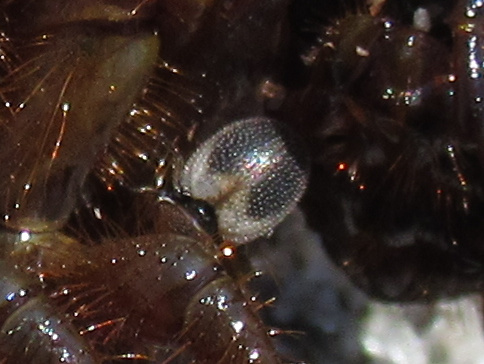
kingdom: Animalia
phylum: Arthropoda
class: Insecta
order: Coleoptera
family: Phycosecidae
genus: Phycosecis
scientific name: Phycosecis
